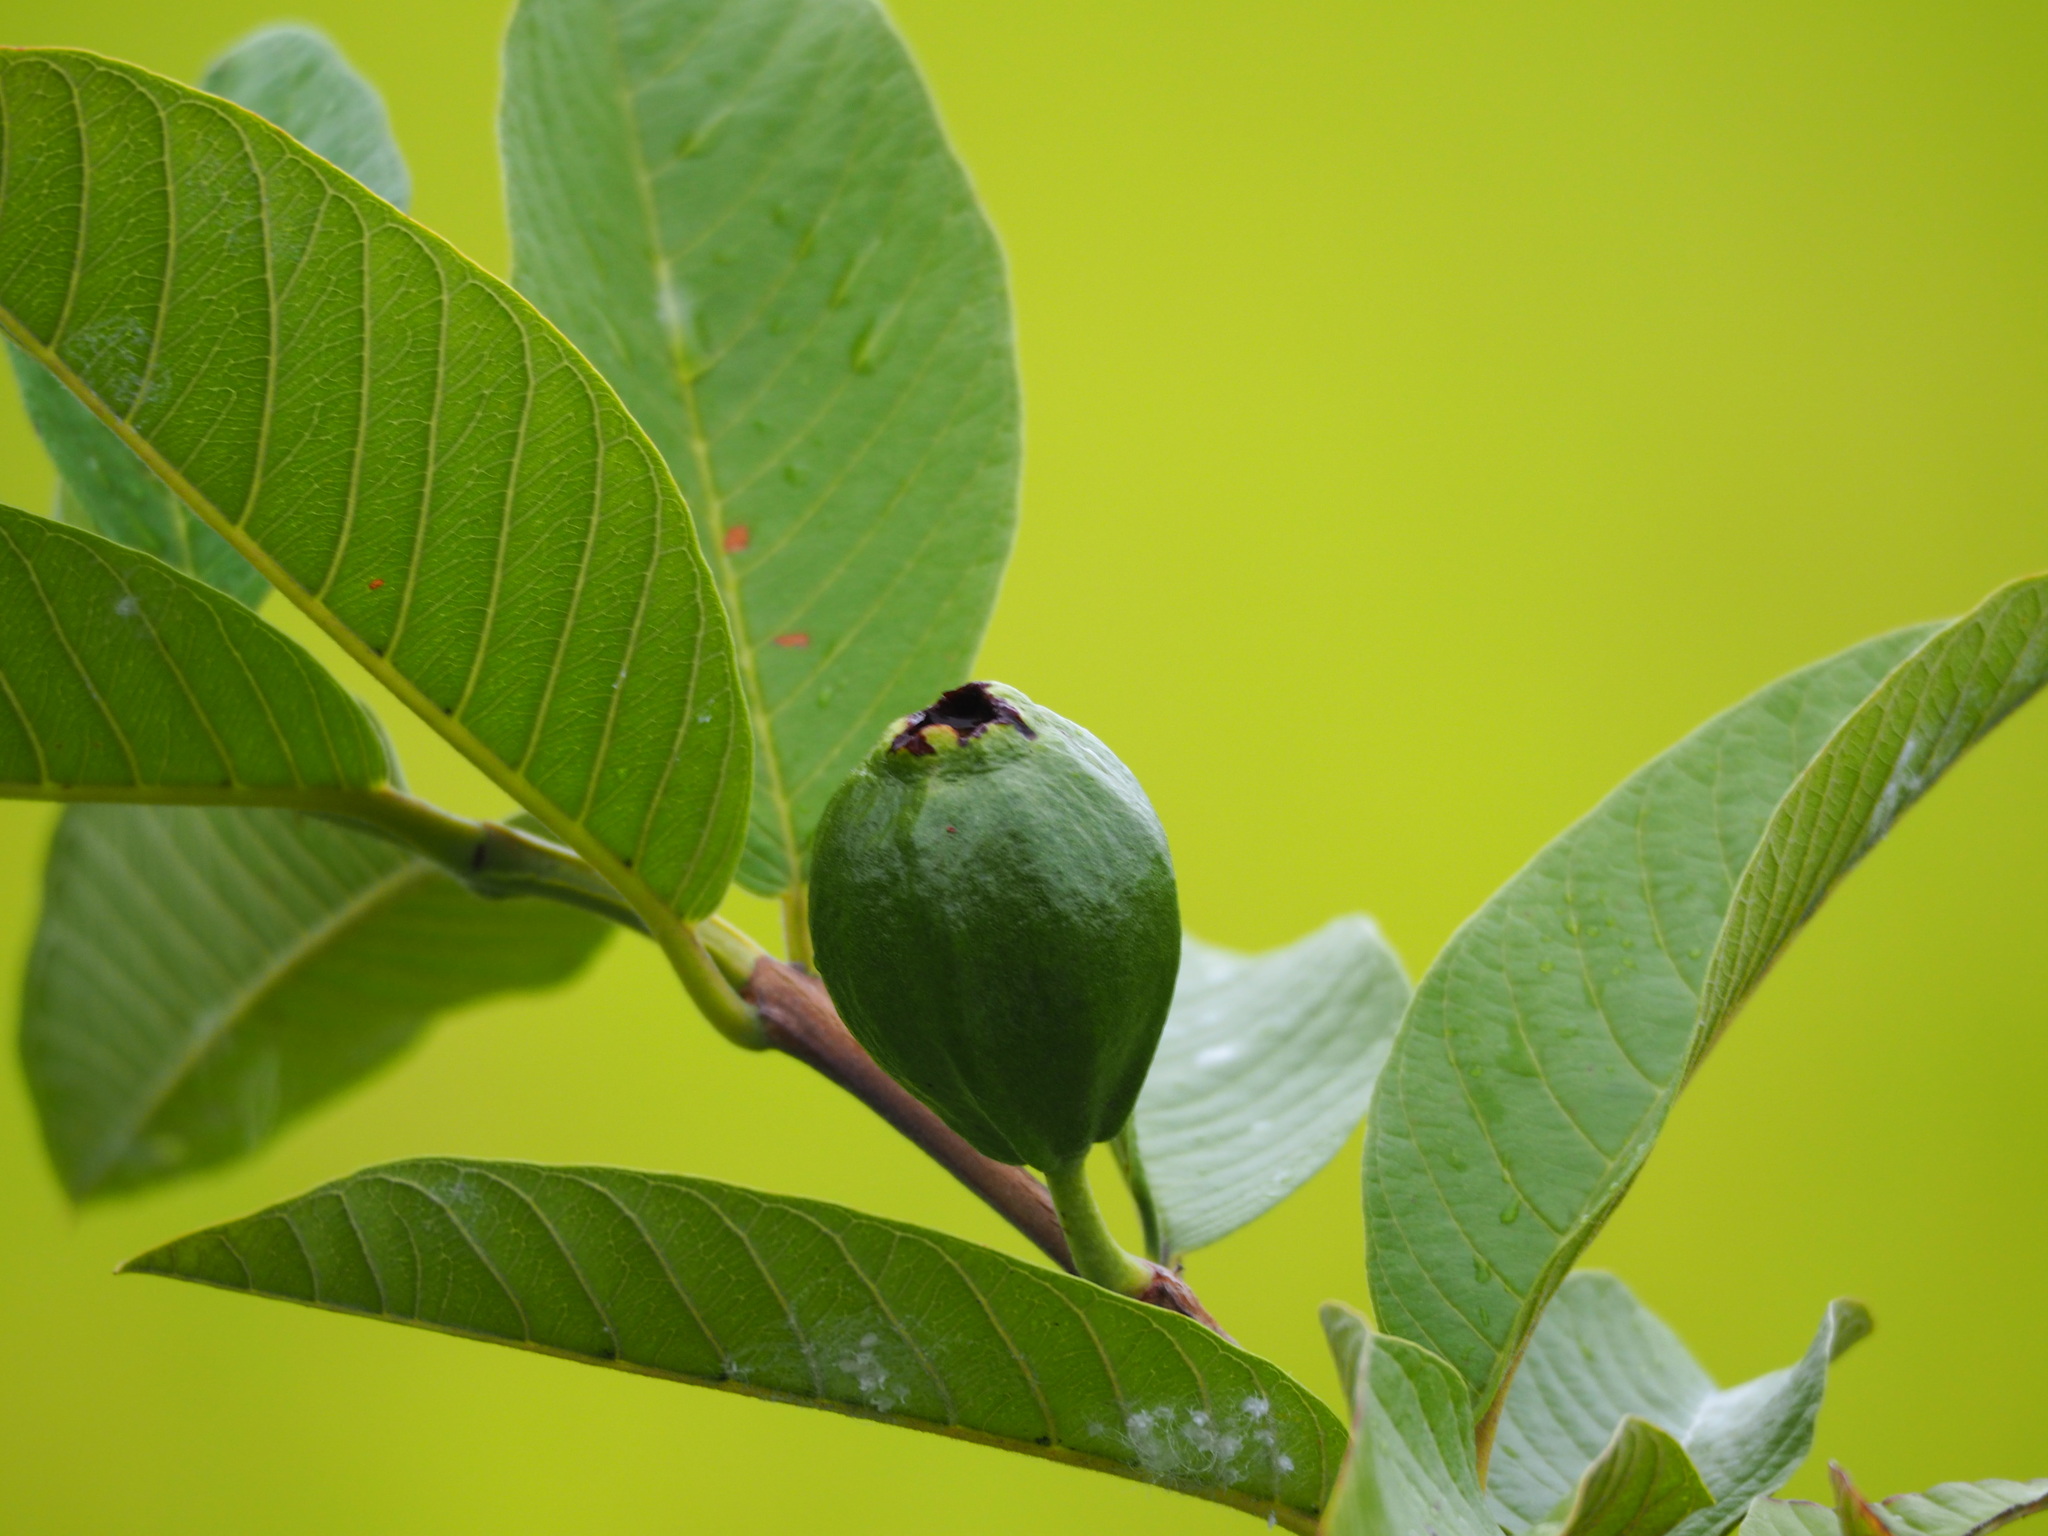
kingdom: Plantae
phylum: Tracheophyta
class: Magnoliopsida
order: Myrtales
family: Myrtaceae
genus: Psidium
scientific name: Psidium guajava
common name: Guava
